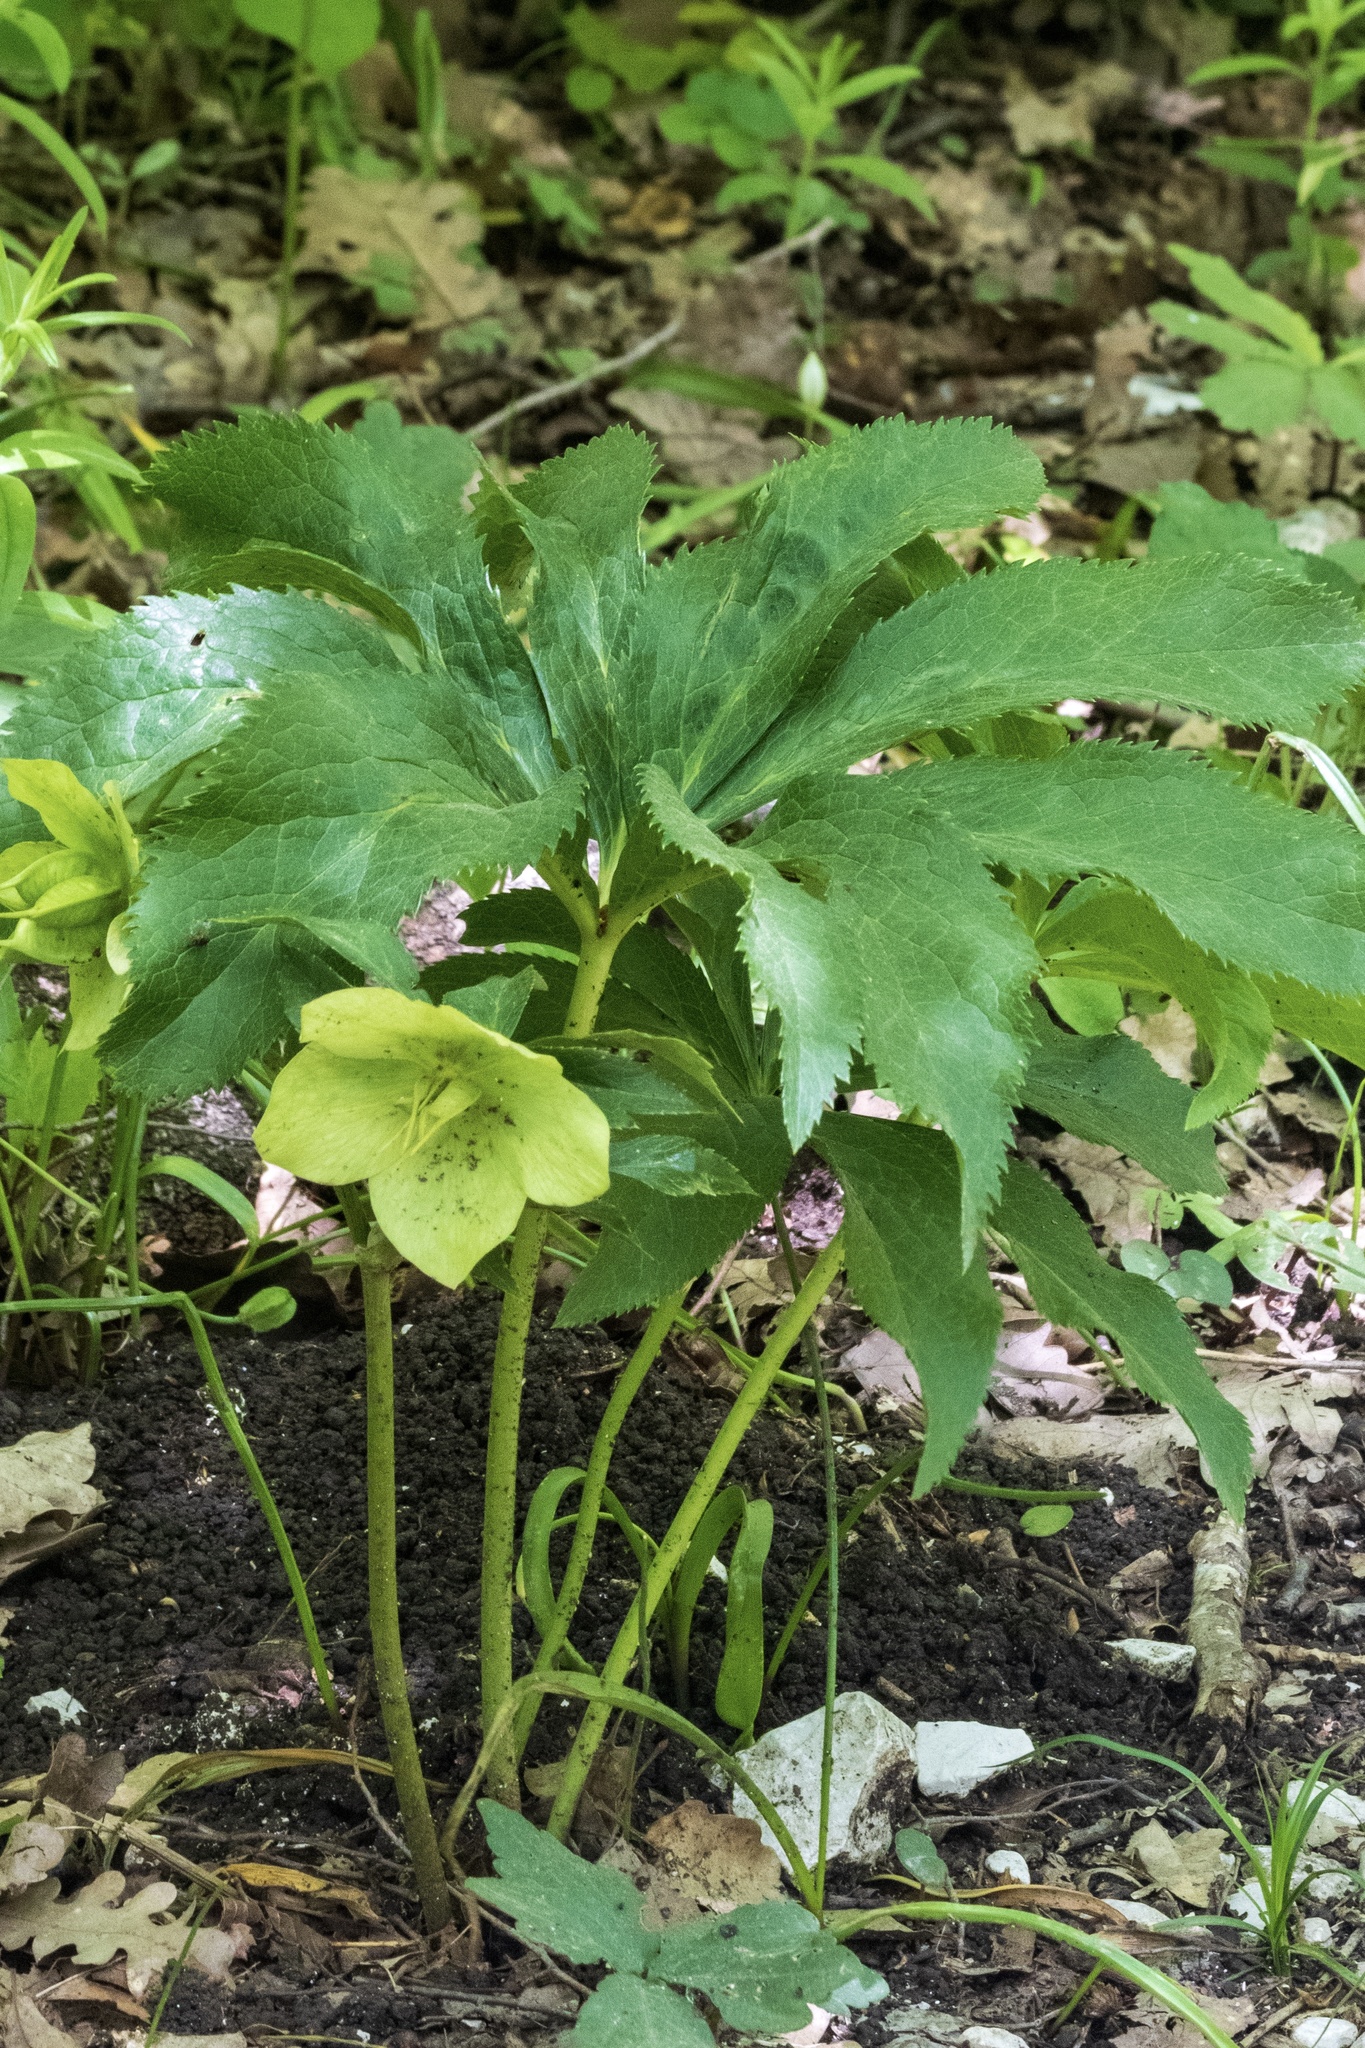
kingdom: Plantae
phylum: Tracheophyta
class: Magnoliopsida
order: Ranunculales
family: Ranunculaceae
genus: Helleborus
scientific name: Helleborus orientalis
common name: Lenten-rose
